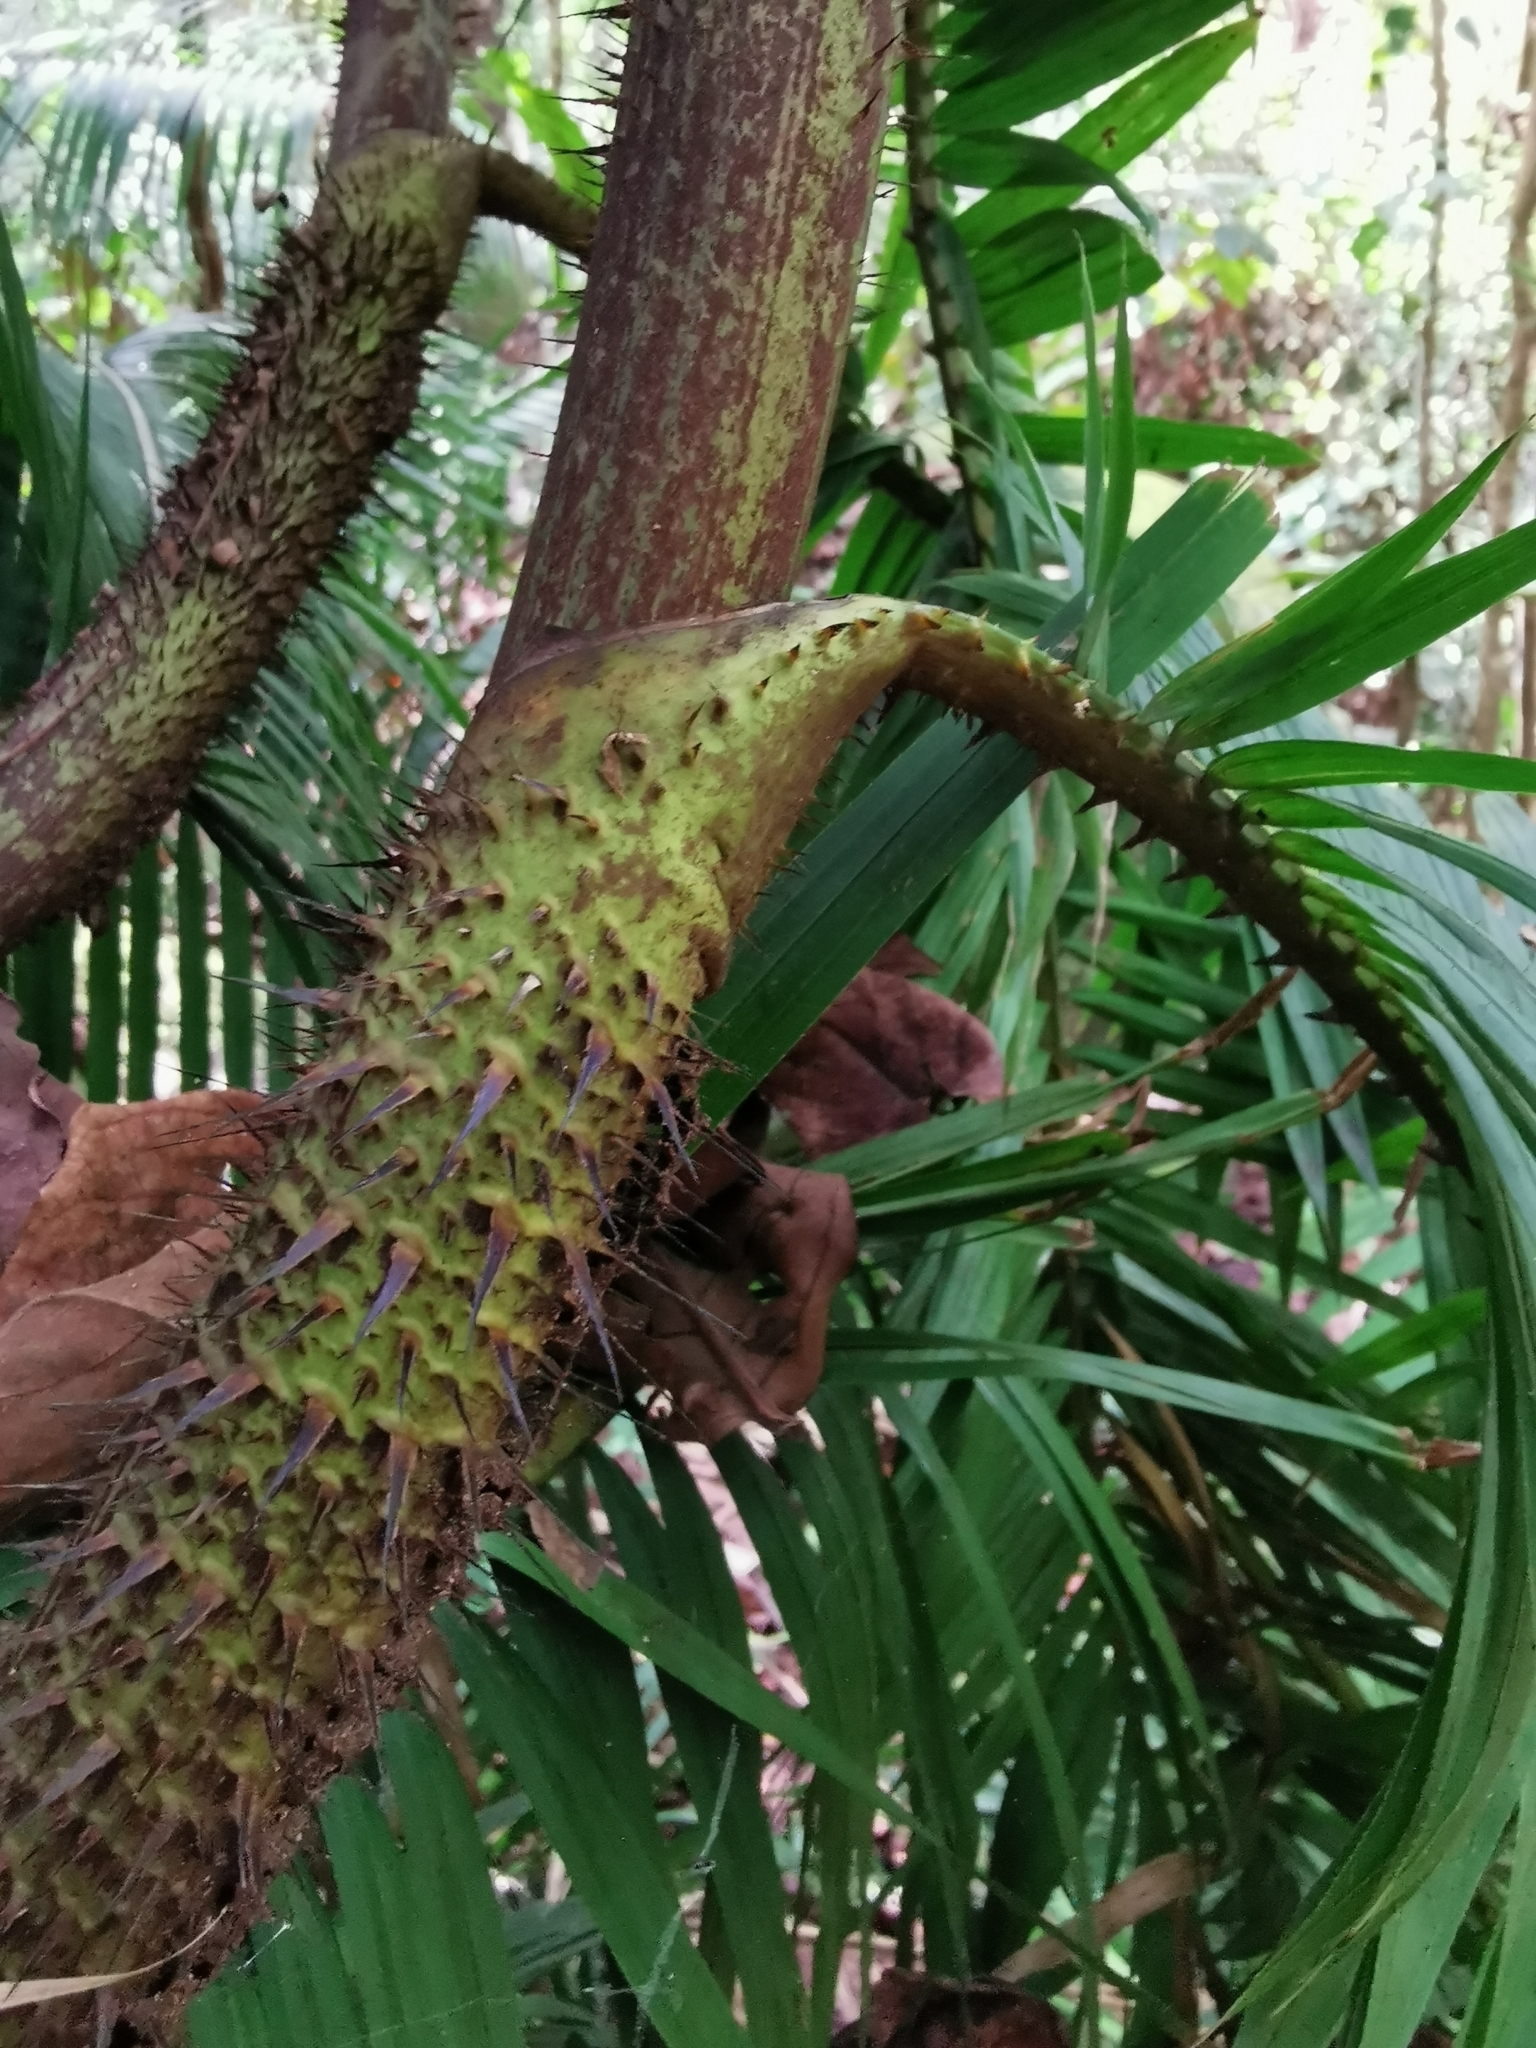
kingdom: Plantae
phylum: Tracheophyta
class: Liliopsida
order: Arecales
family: Arecaceae
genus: Calamus
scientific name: Calamus melanochaetes
